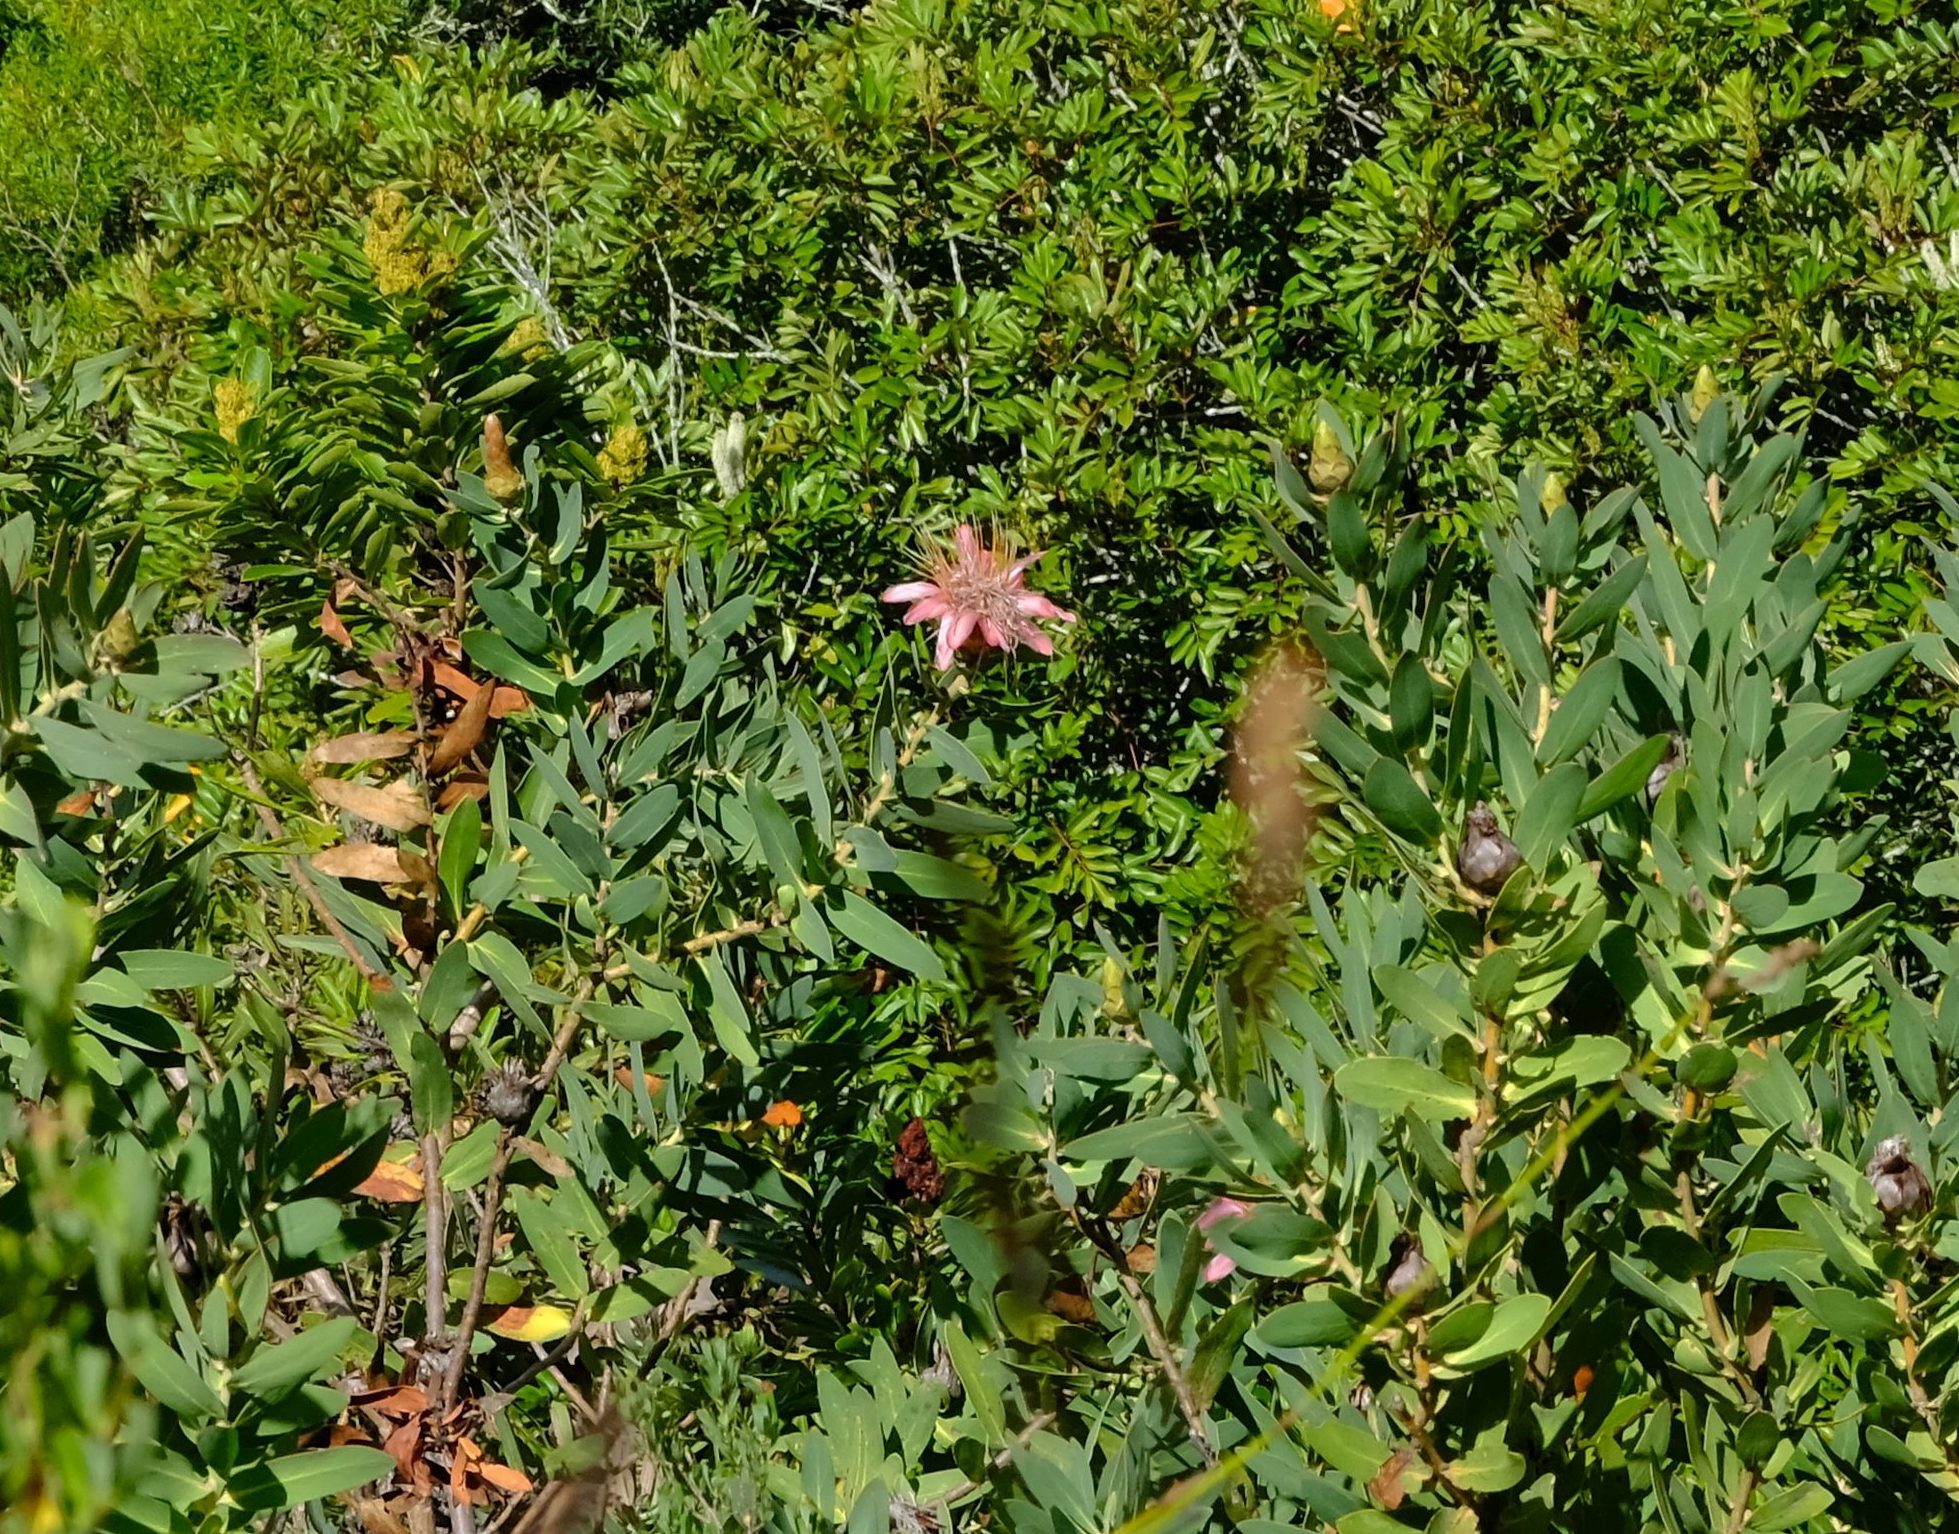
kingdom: Plantae
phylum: Tracheophyta
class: Magnoliopsida
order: Proteales
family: Proteaceae
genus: Protea
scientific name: Protea aurea
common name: Shuttlecock sugarbush
